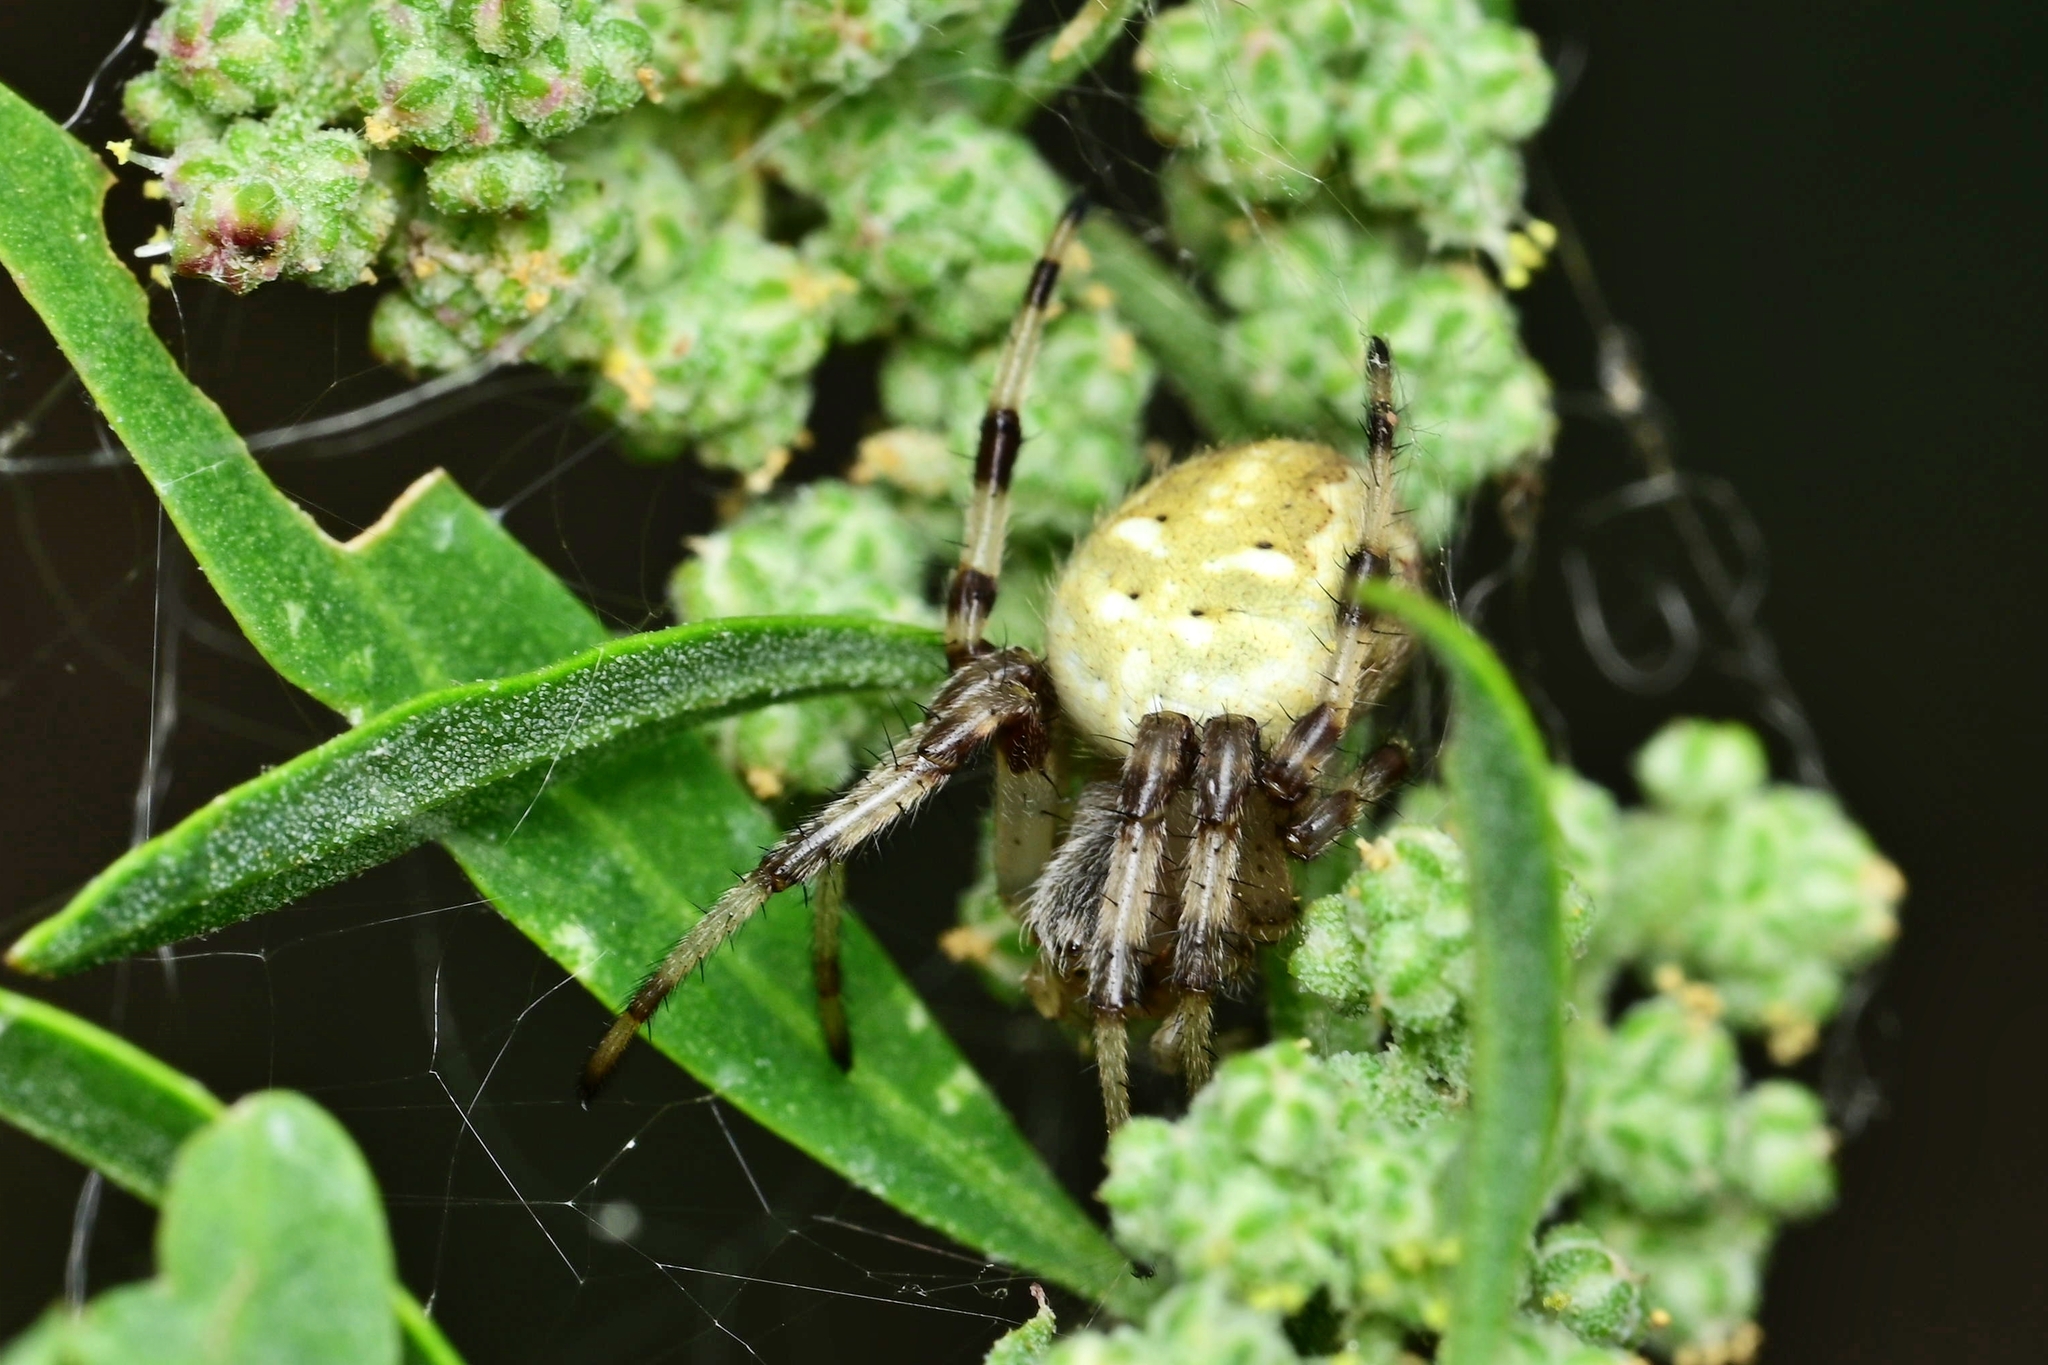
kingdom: Animalia
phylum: Arthropoda
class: Arachnida
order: Araneae
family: Araneidae
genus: Araneus
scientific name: Araneus quadratus
